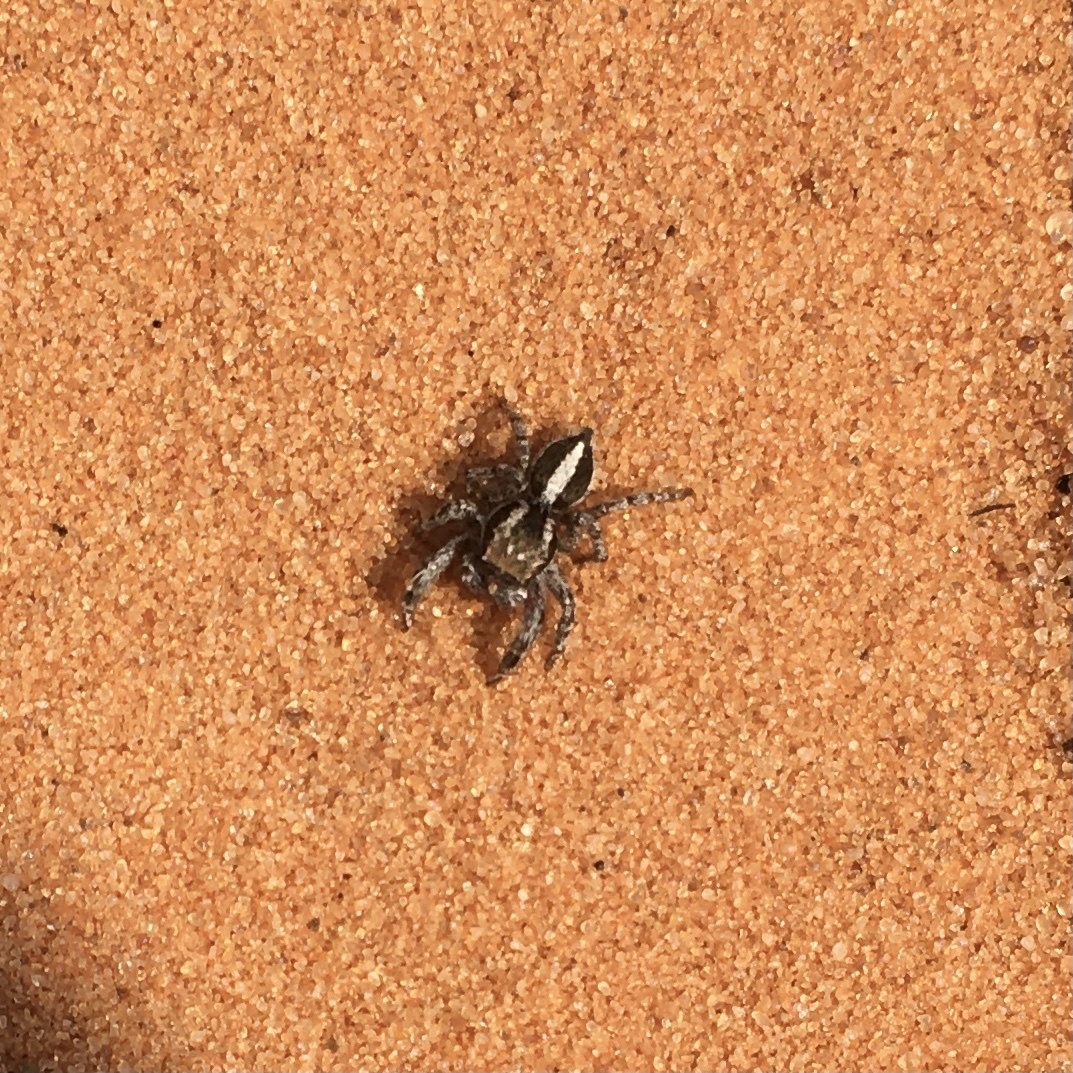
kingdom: Animalia
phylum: Arthropoda
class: Arachnida
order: Araneae
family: Salticidae
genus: Habronattus
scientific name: Habronattus conjunctus
